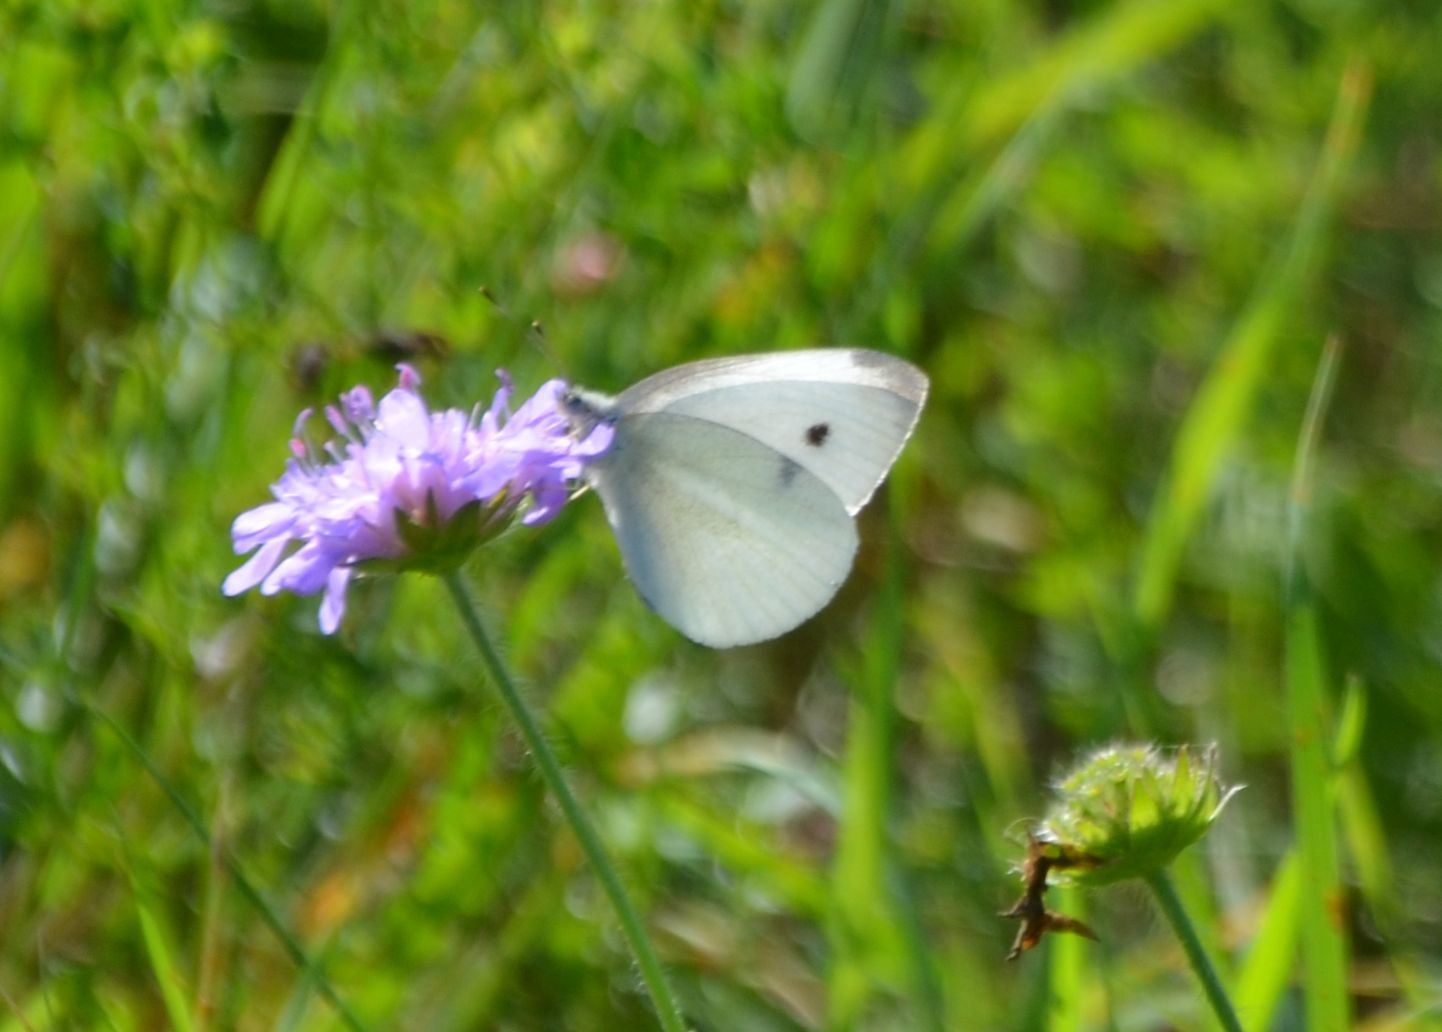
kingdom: Animalia
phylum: Arthropoda
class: Insecta
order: Lepidoptera
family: Pieridae
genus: Pieris
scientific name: Pieris rapae
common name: Small white
